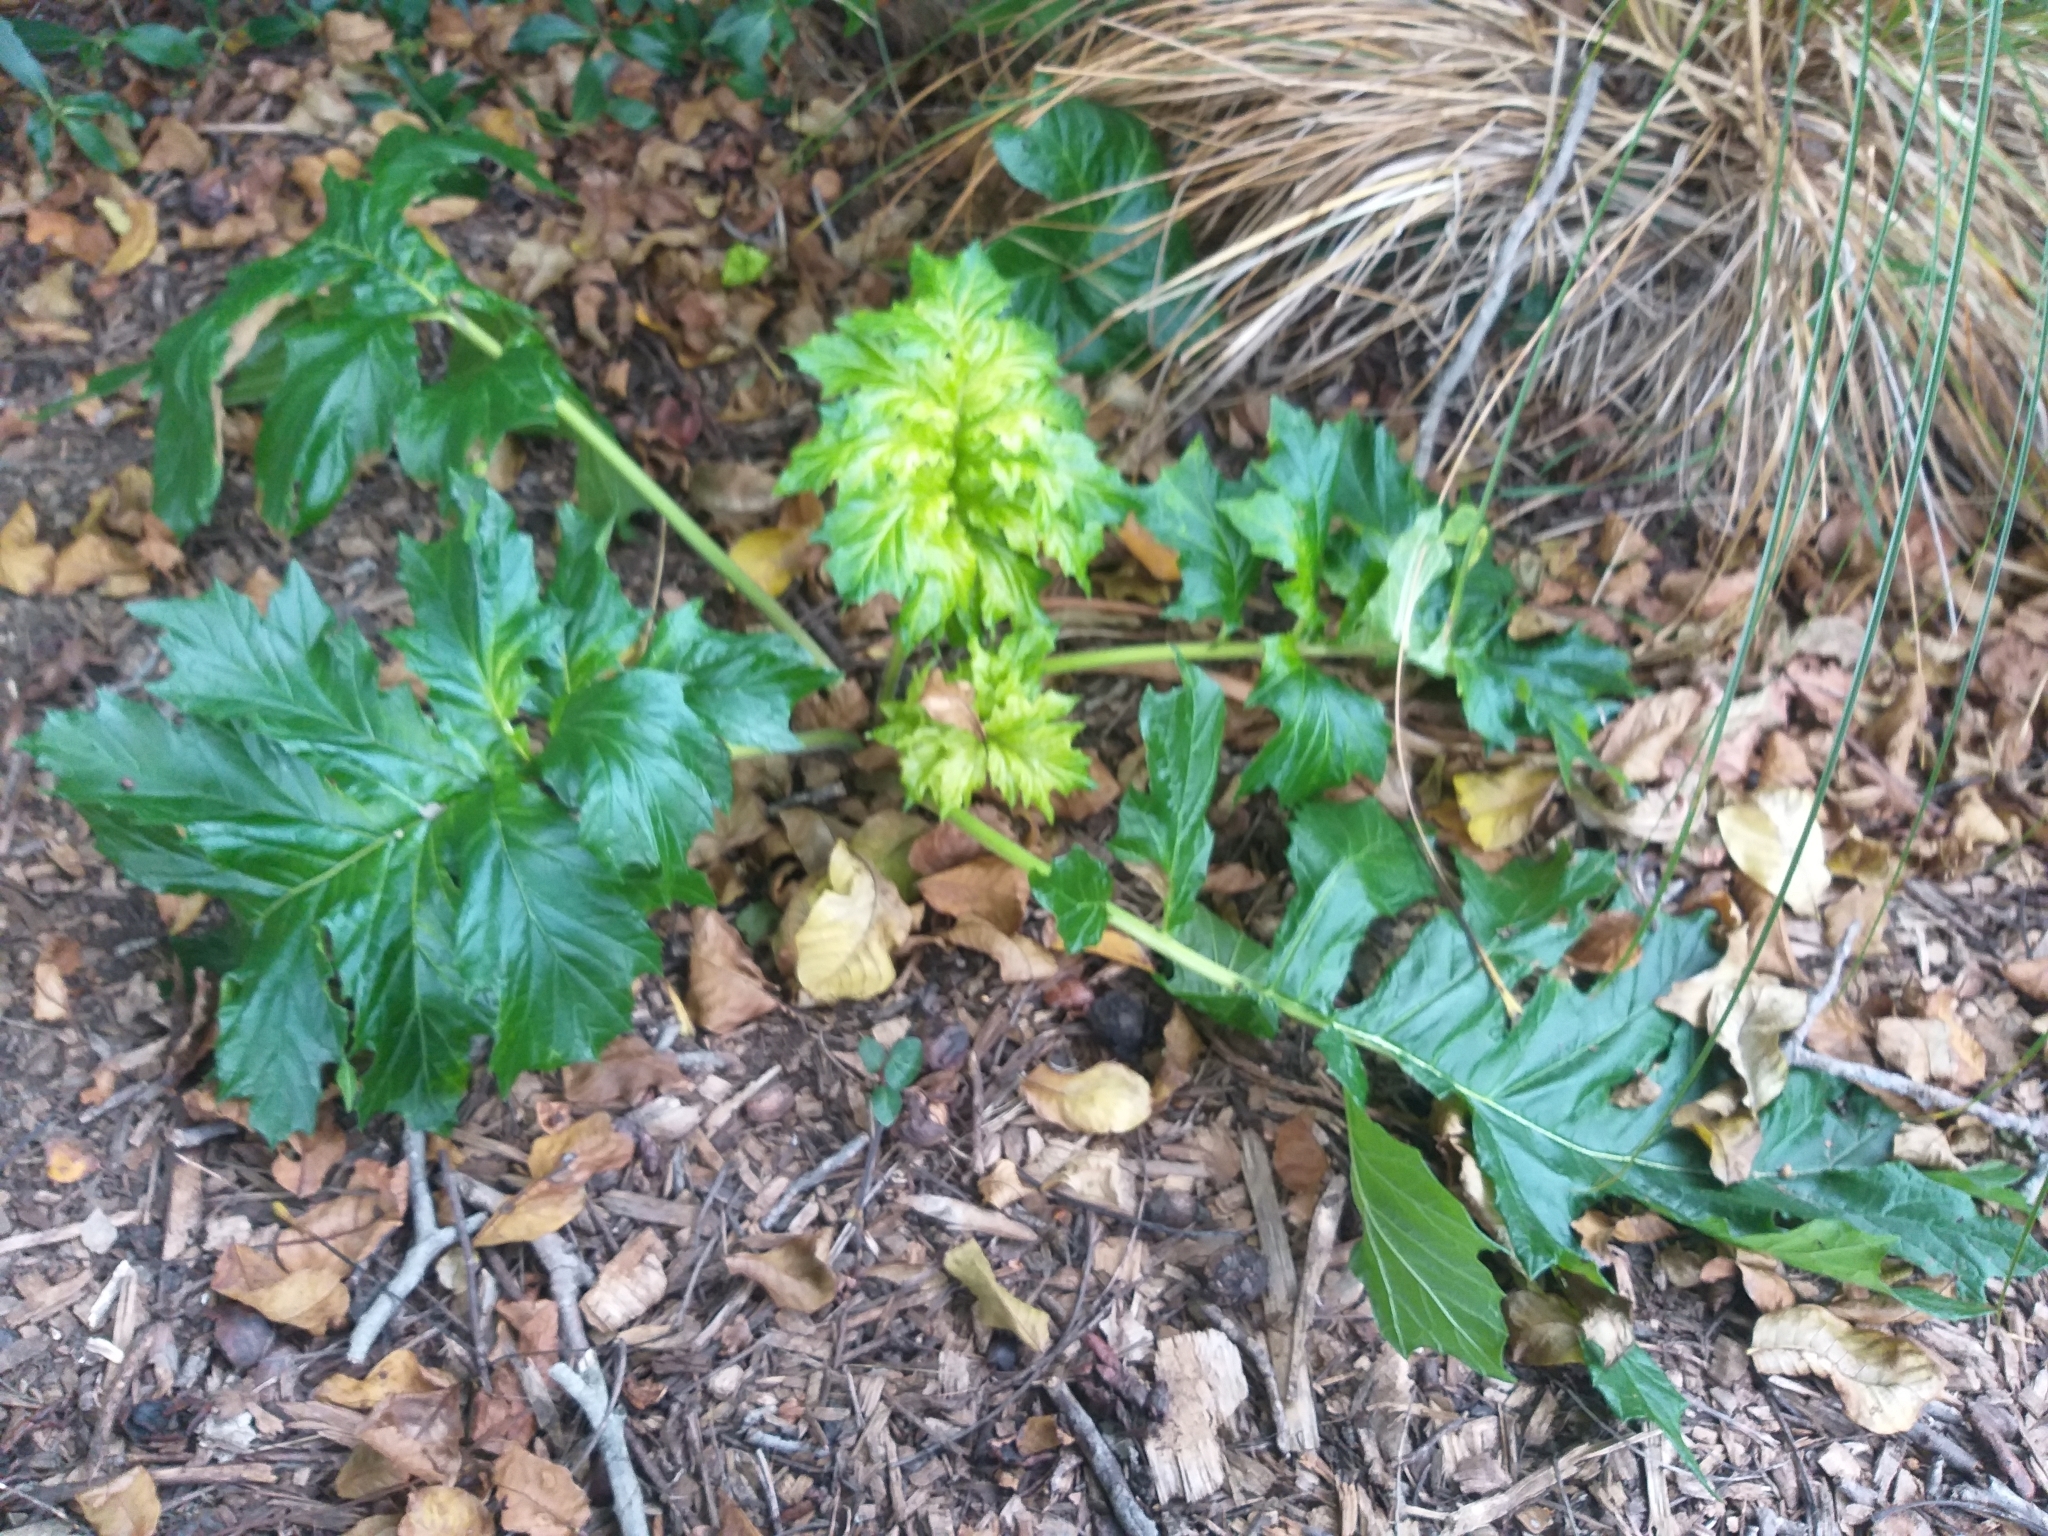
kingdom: Plantae
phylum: Tracheophyta
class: Magnoliopsida
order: Lamiales
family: Acanthaceae
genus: Acanthus
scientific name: Acanthus mollis
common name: Bear's-breech
